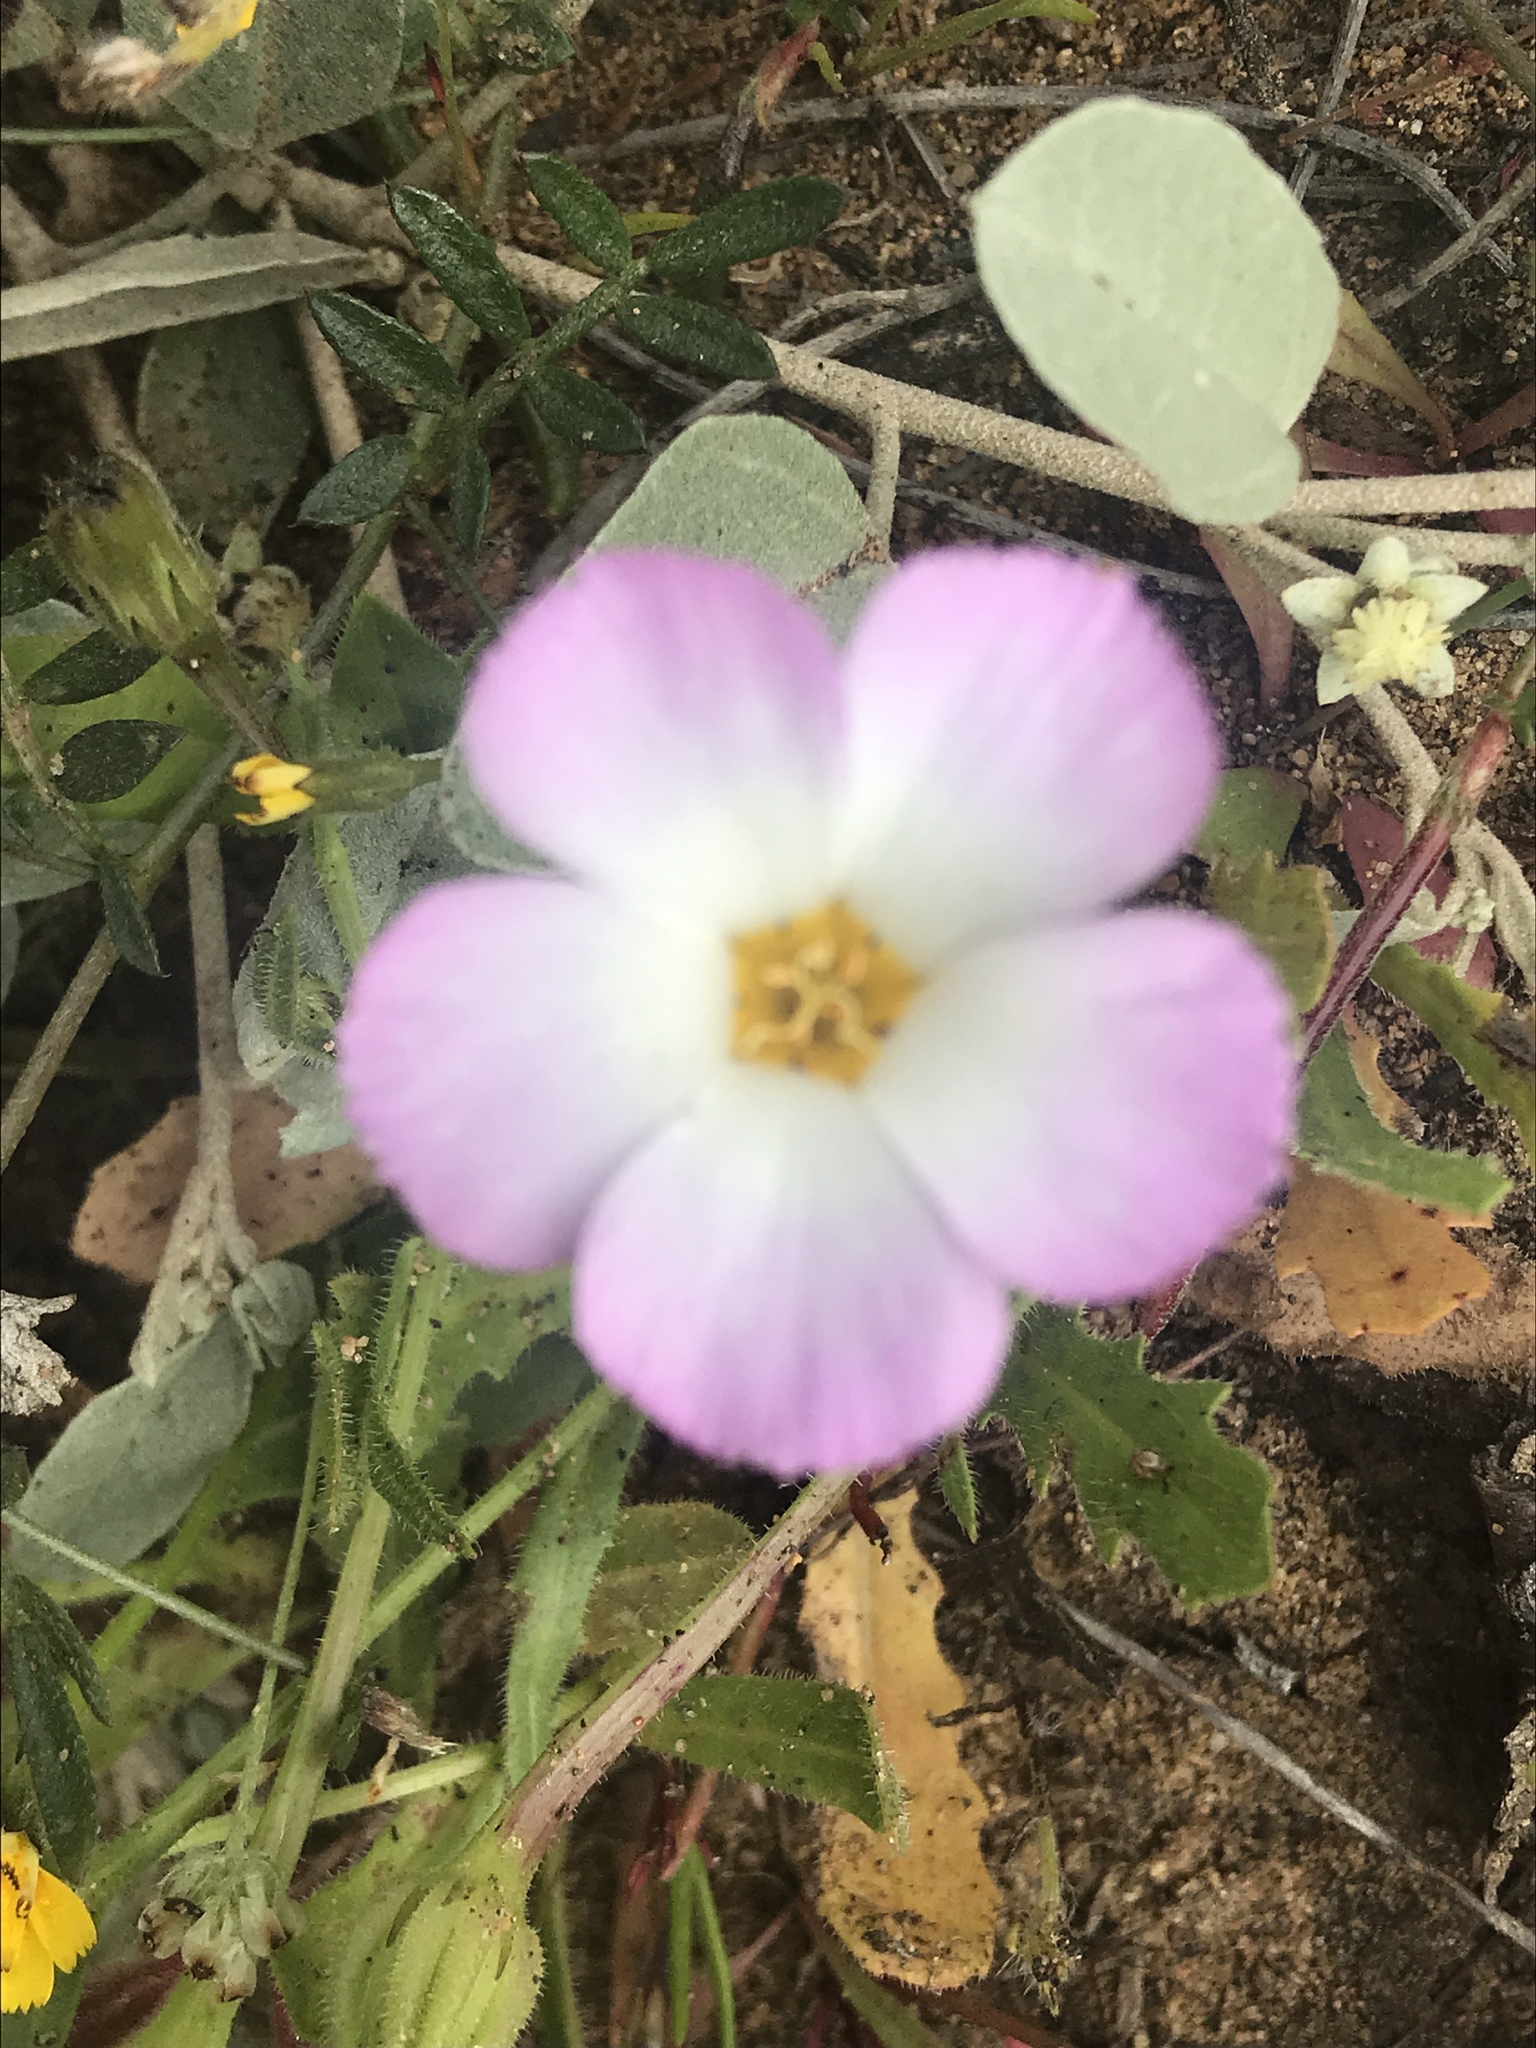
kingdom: Plantae
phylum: Tracheophyta
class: Magnoliopsida
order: Ericales
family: Polemoniaceae
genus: Linanthus
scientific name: Linanthus dianthiflorus
